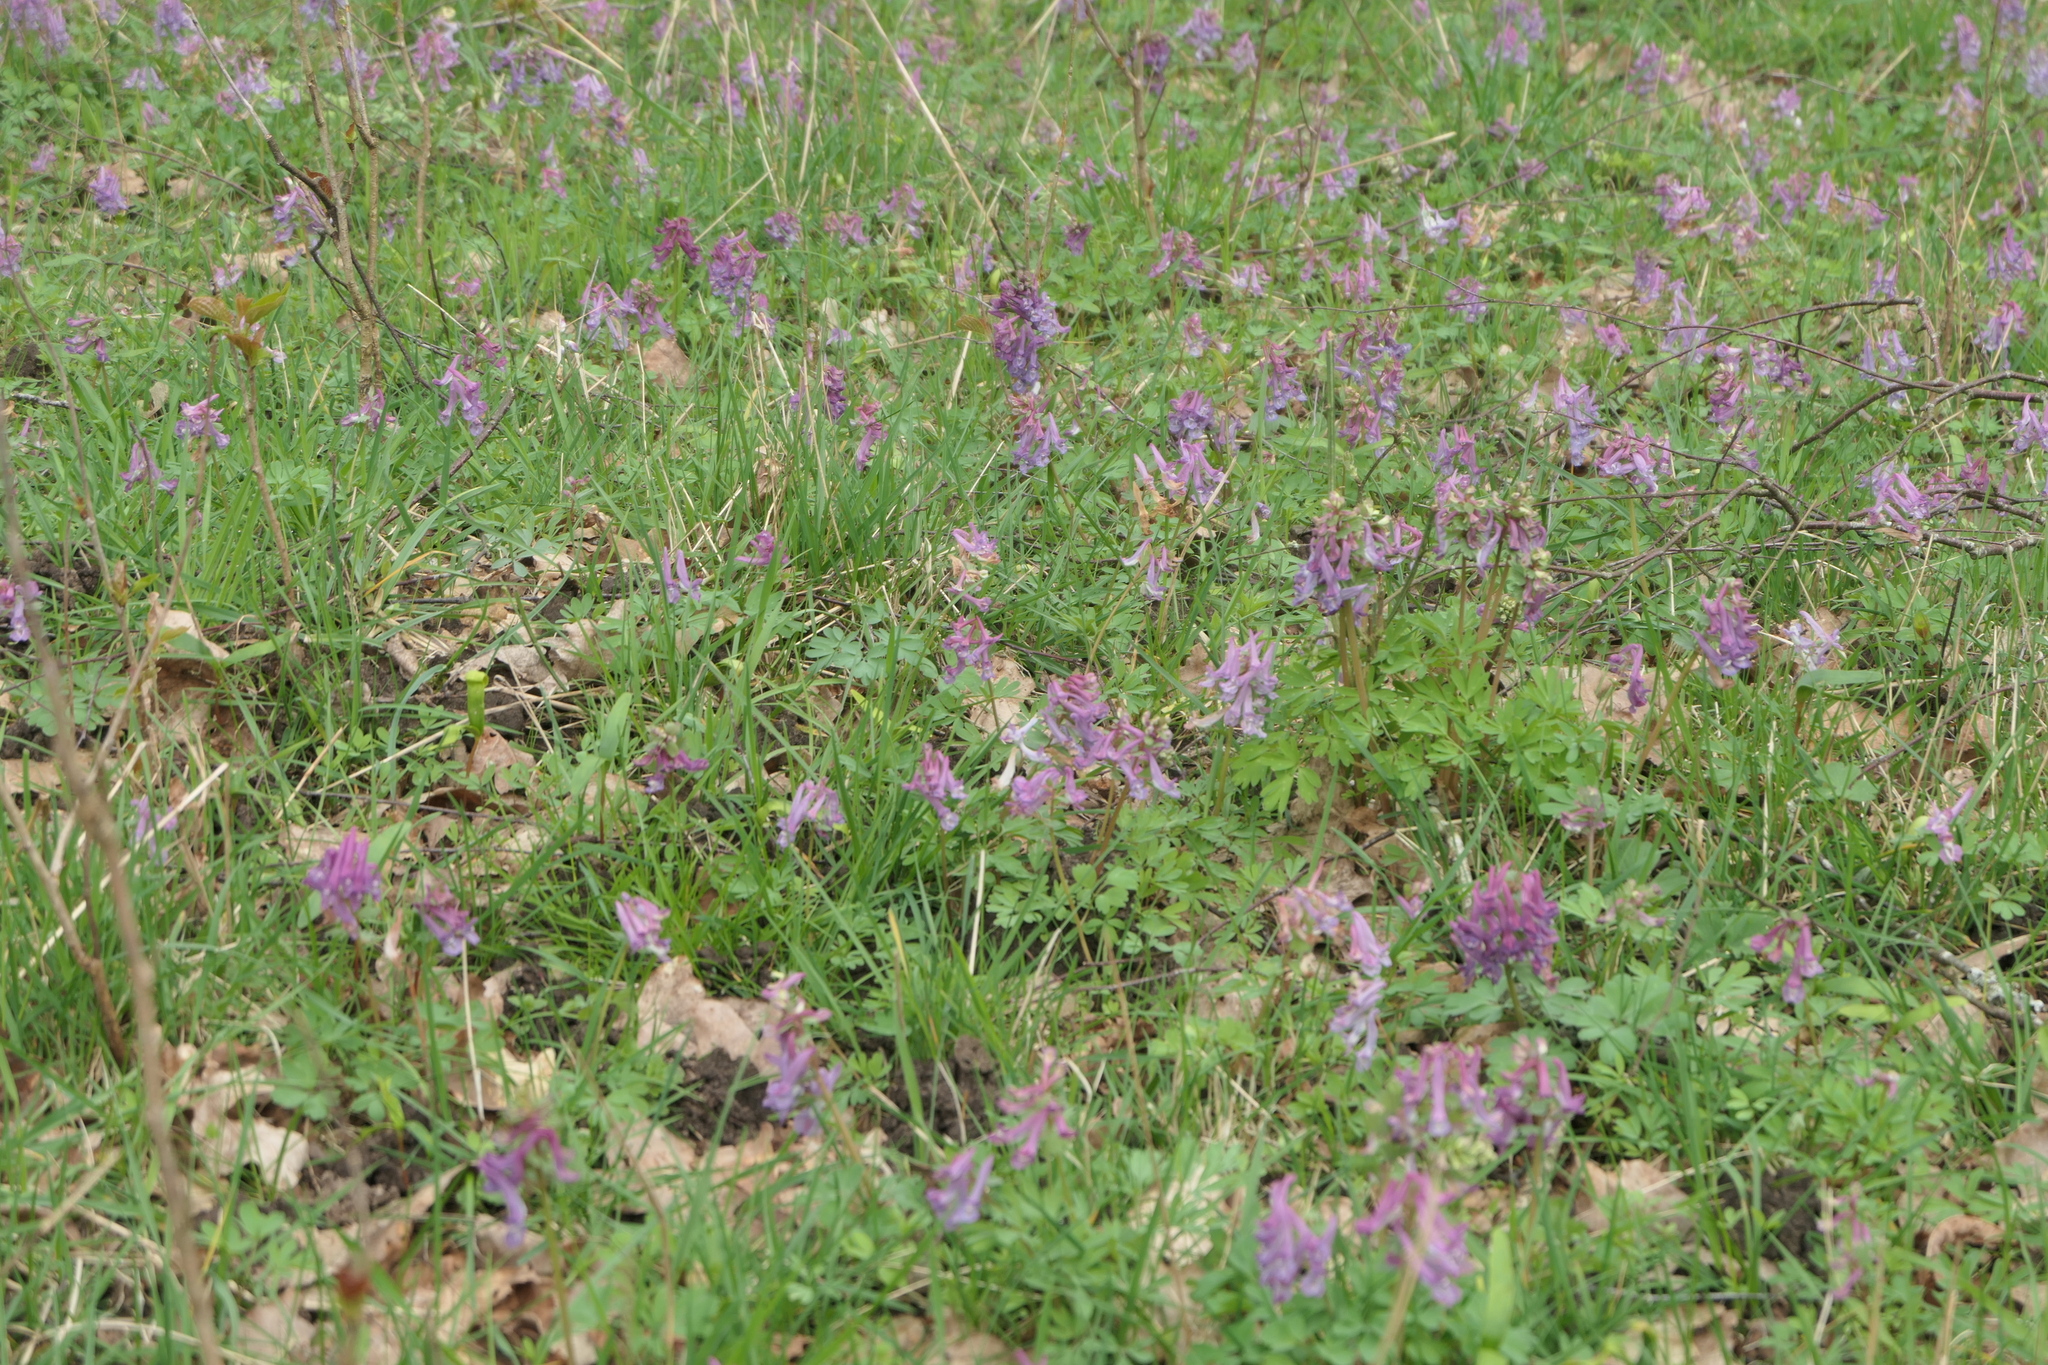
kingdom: Plantae
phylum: Tracheophyta
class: Magnoliopsida
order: Ranunculales
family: Papaveraceae
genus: Corydalis
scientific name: Corydalis solida
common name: Bird-in-a-bush
